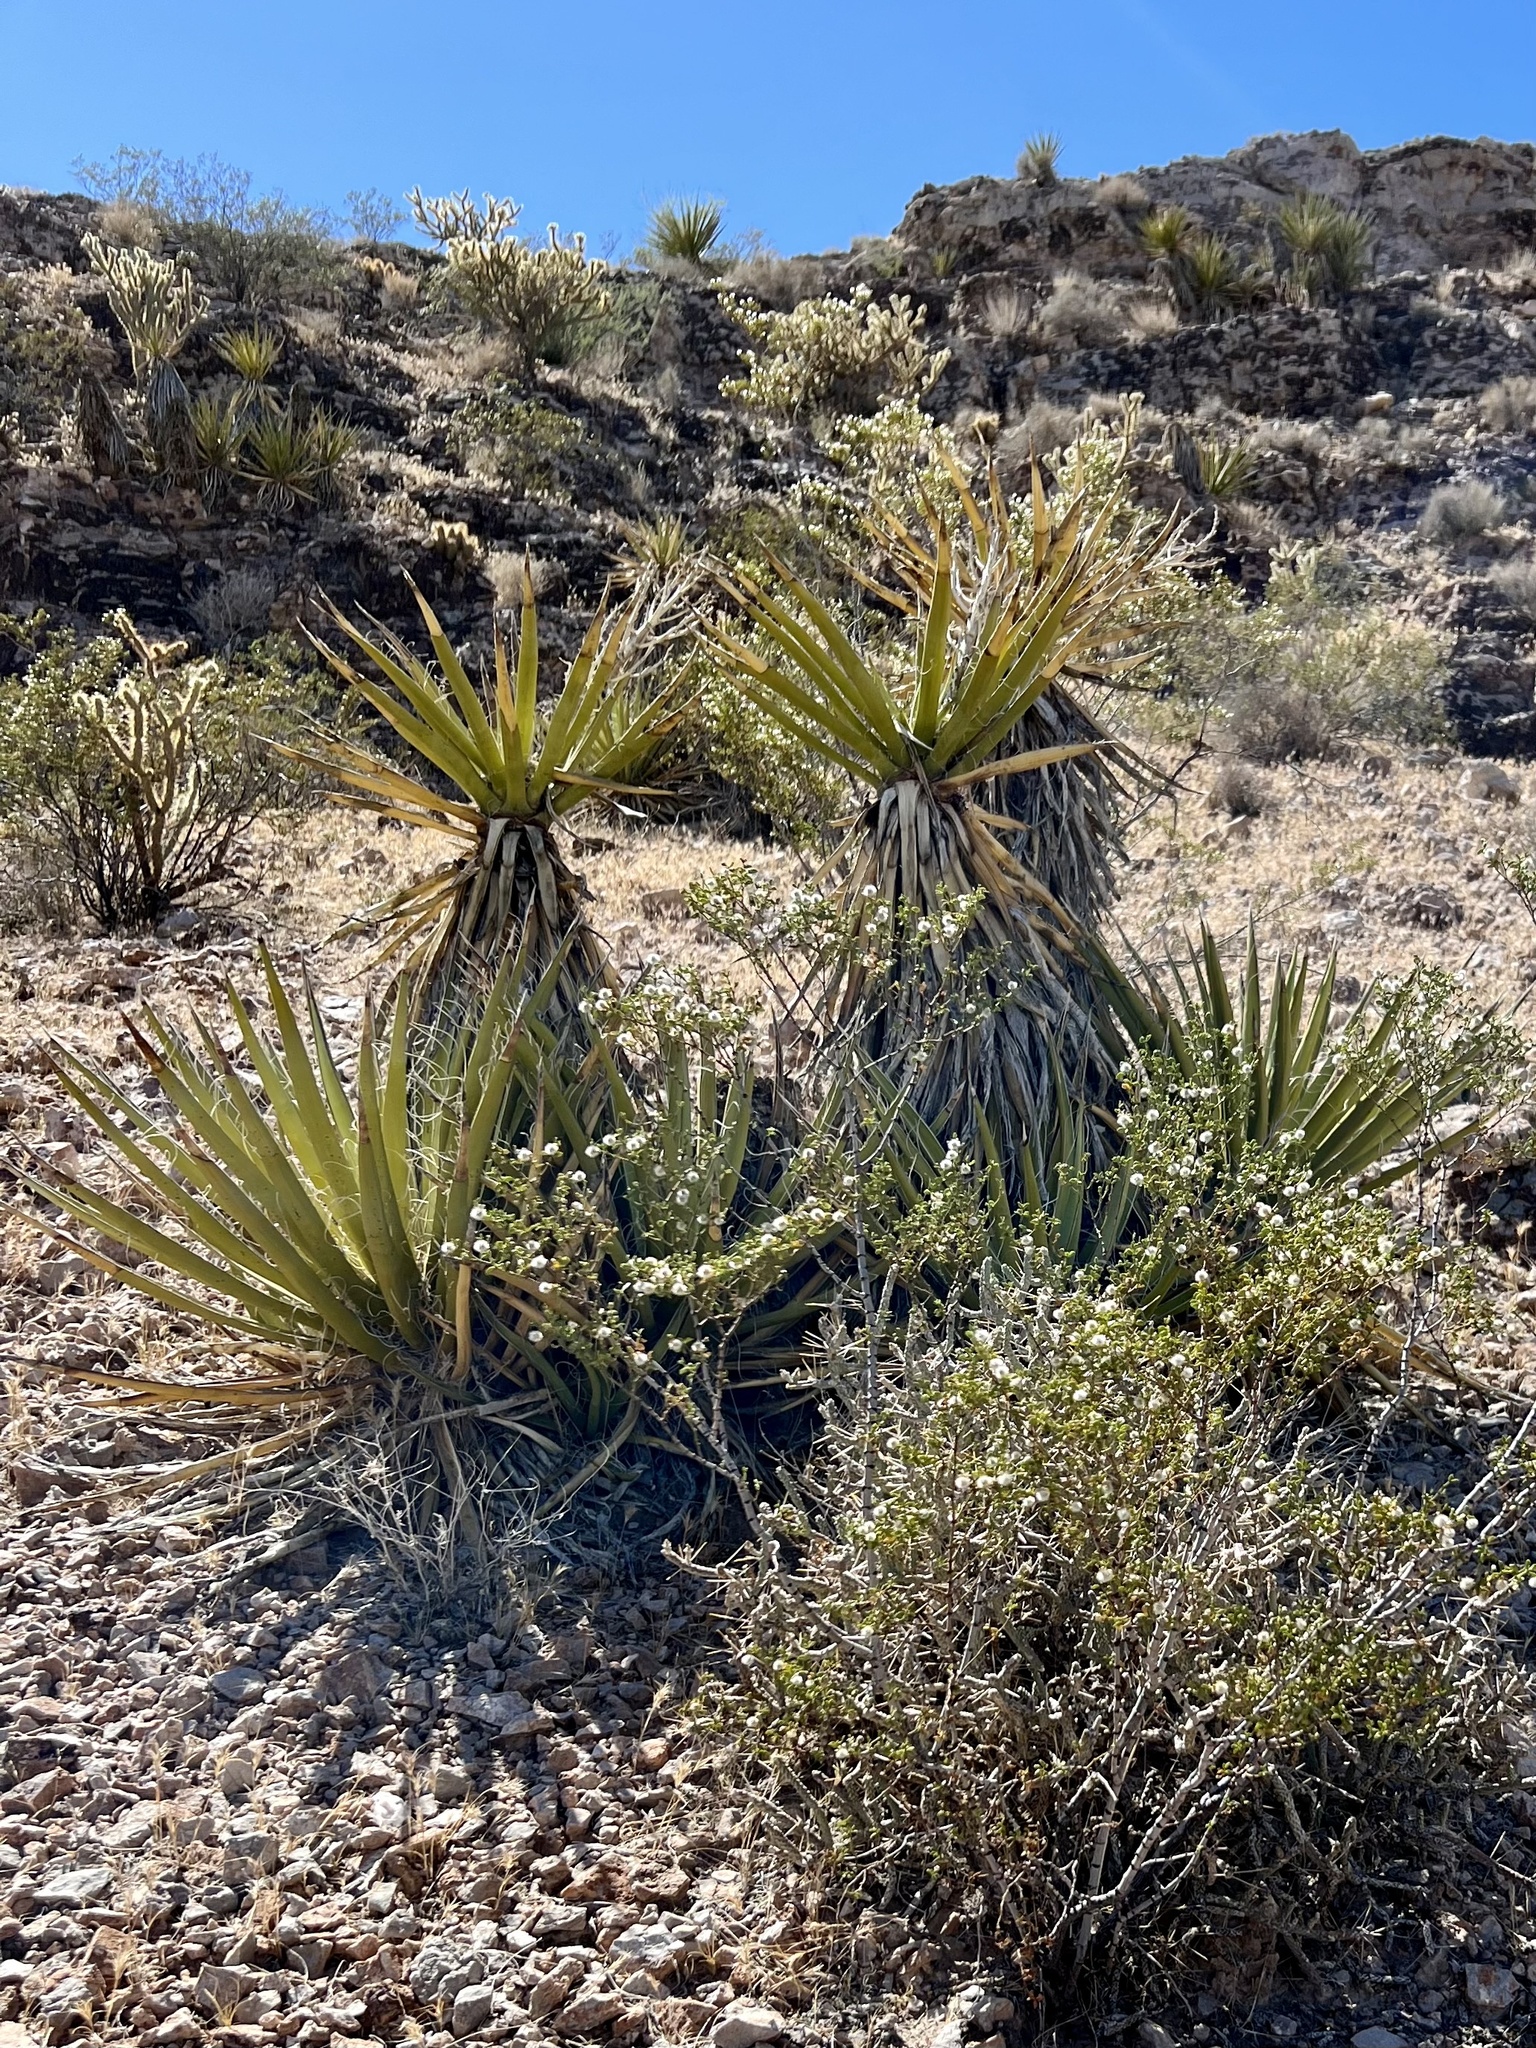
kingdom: Plantae
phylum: Tracheophyta
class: Liliopsida
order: Asparagales
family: Asparagaceae
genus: Yucca
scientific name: Yucca schidigera
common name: Mojave yucca
